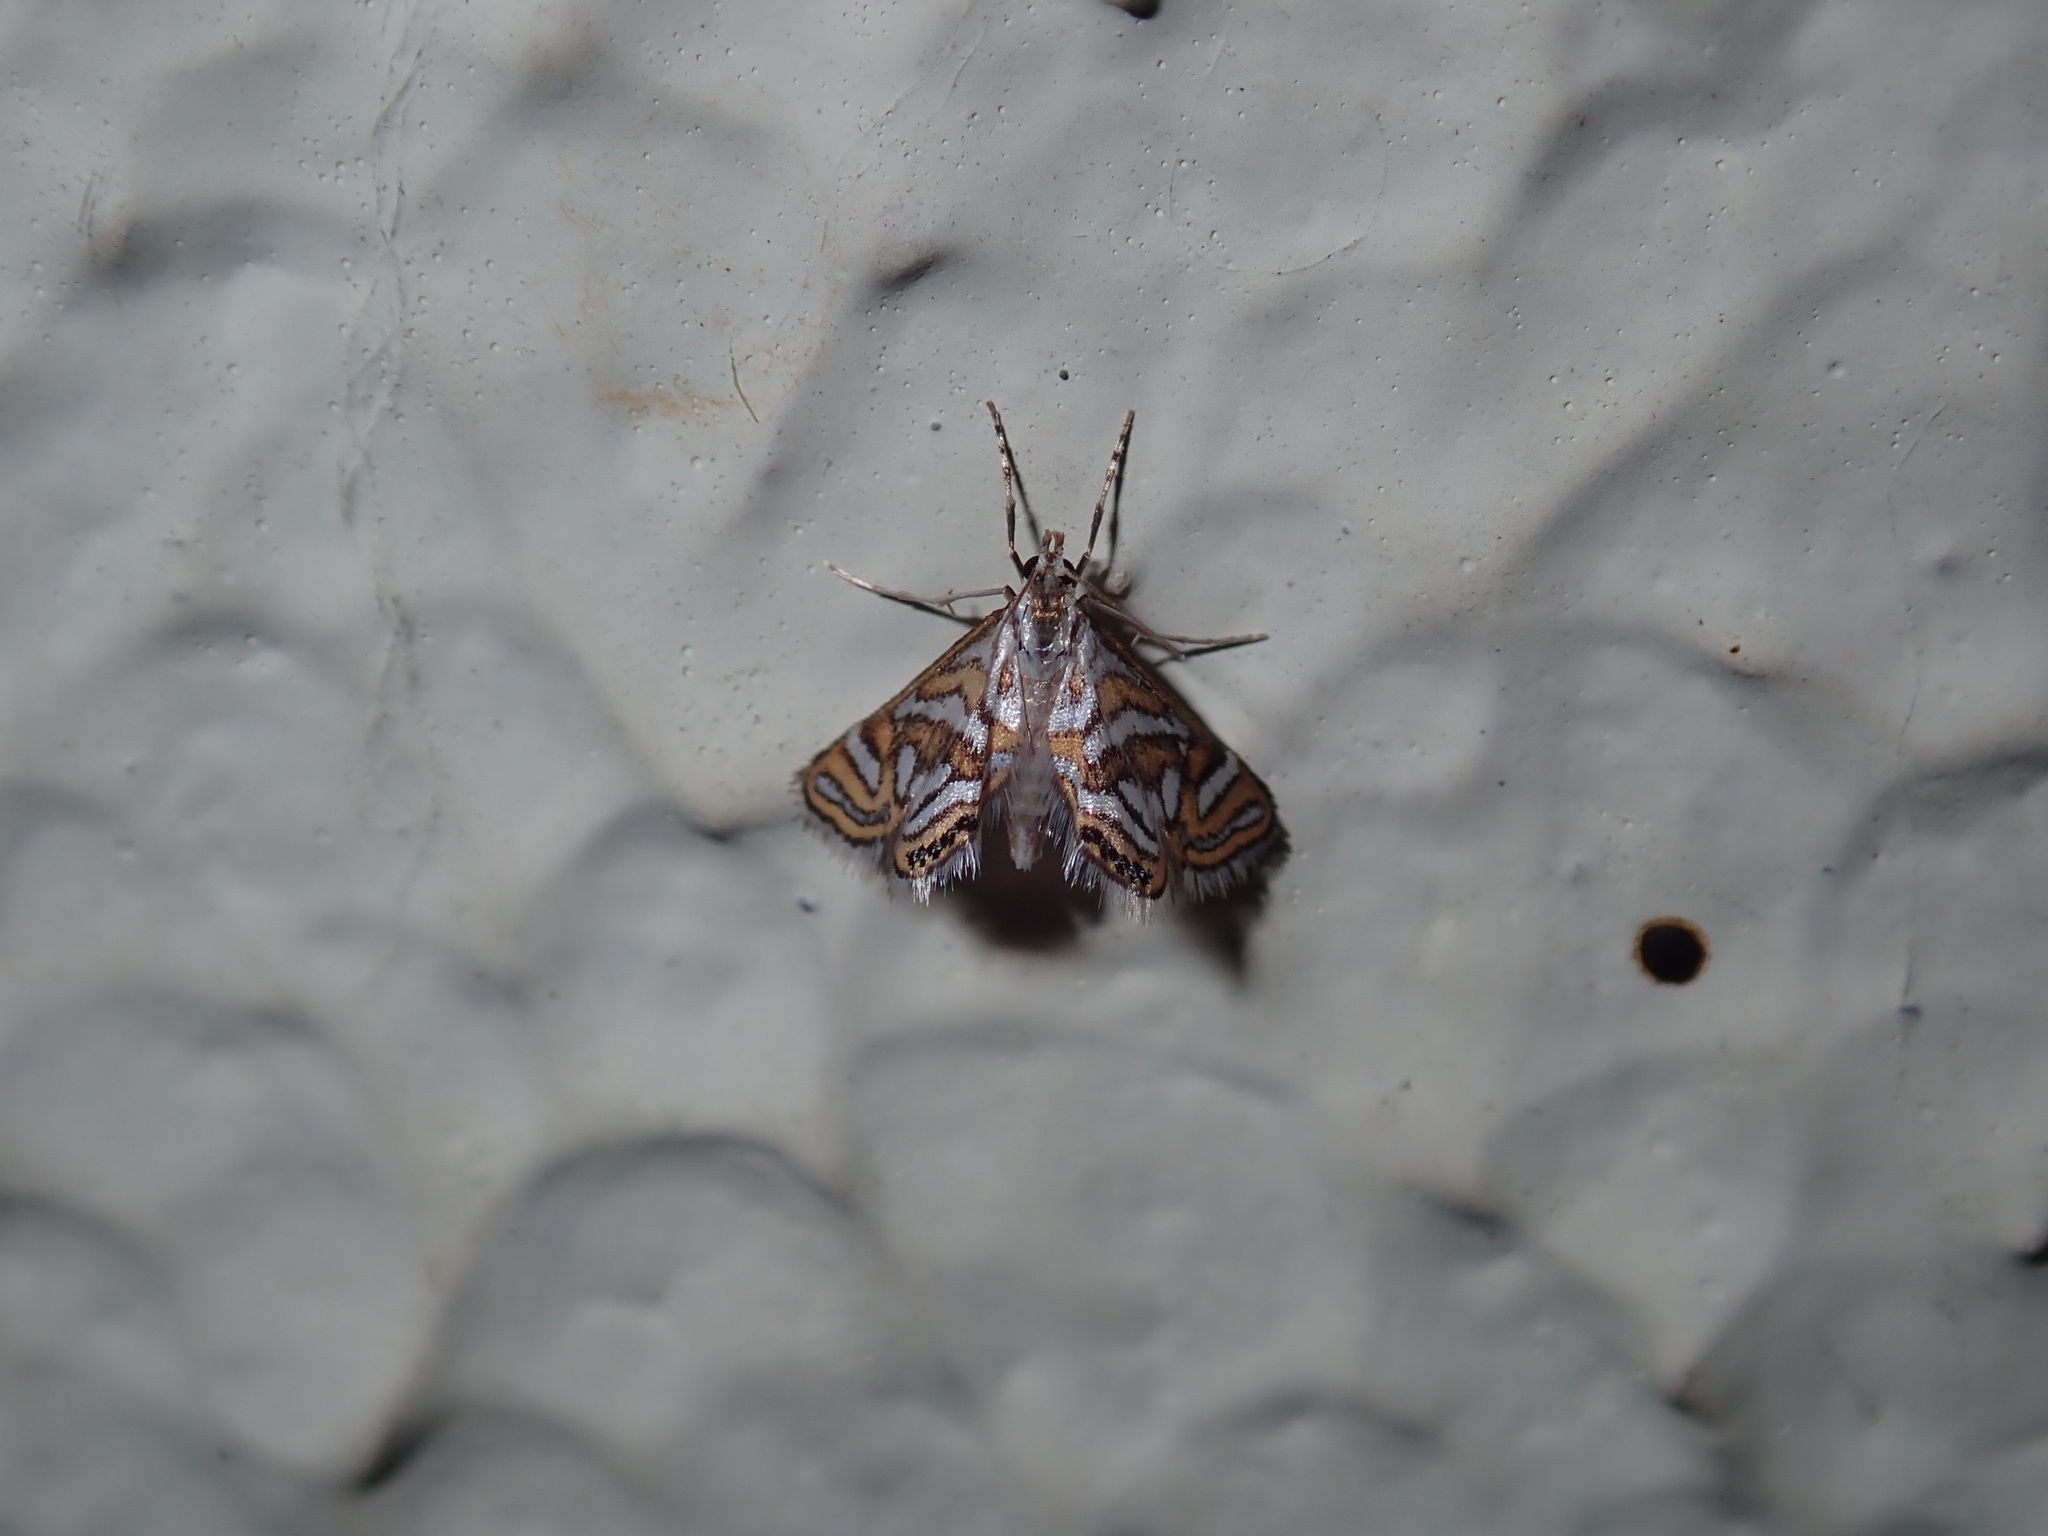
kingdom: Animalia
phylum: Arthropoda
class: Insecta
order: Lepidoptera
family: Crambidae
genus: Anydraula
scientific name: Anydraula pericompsa
